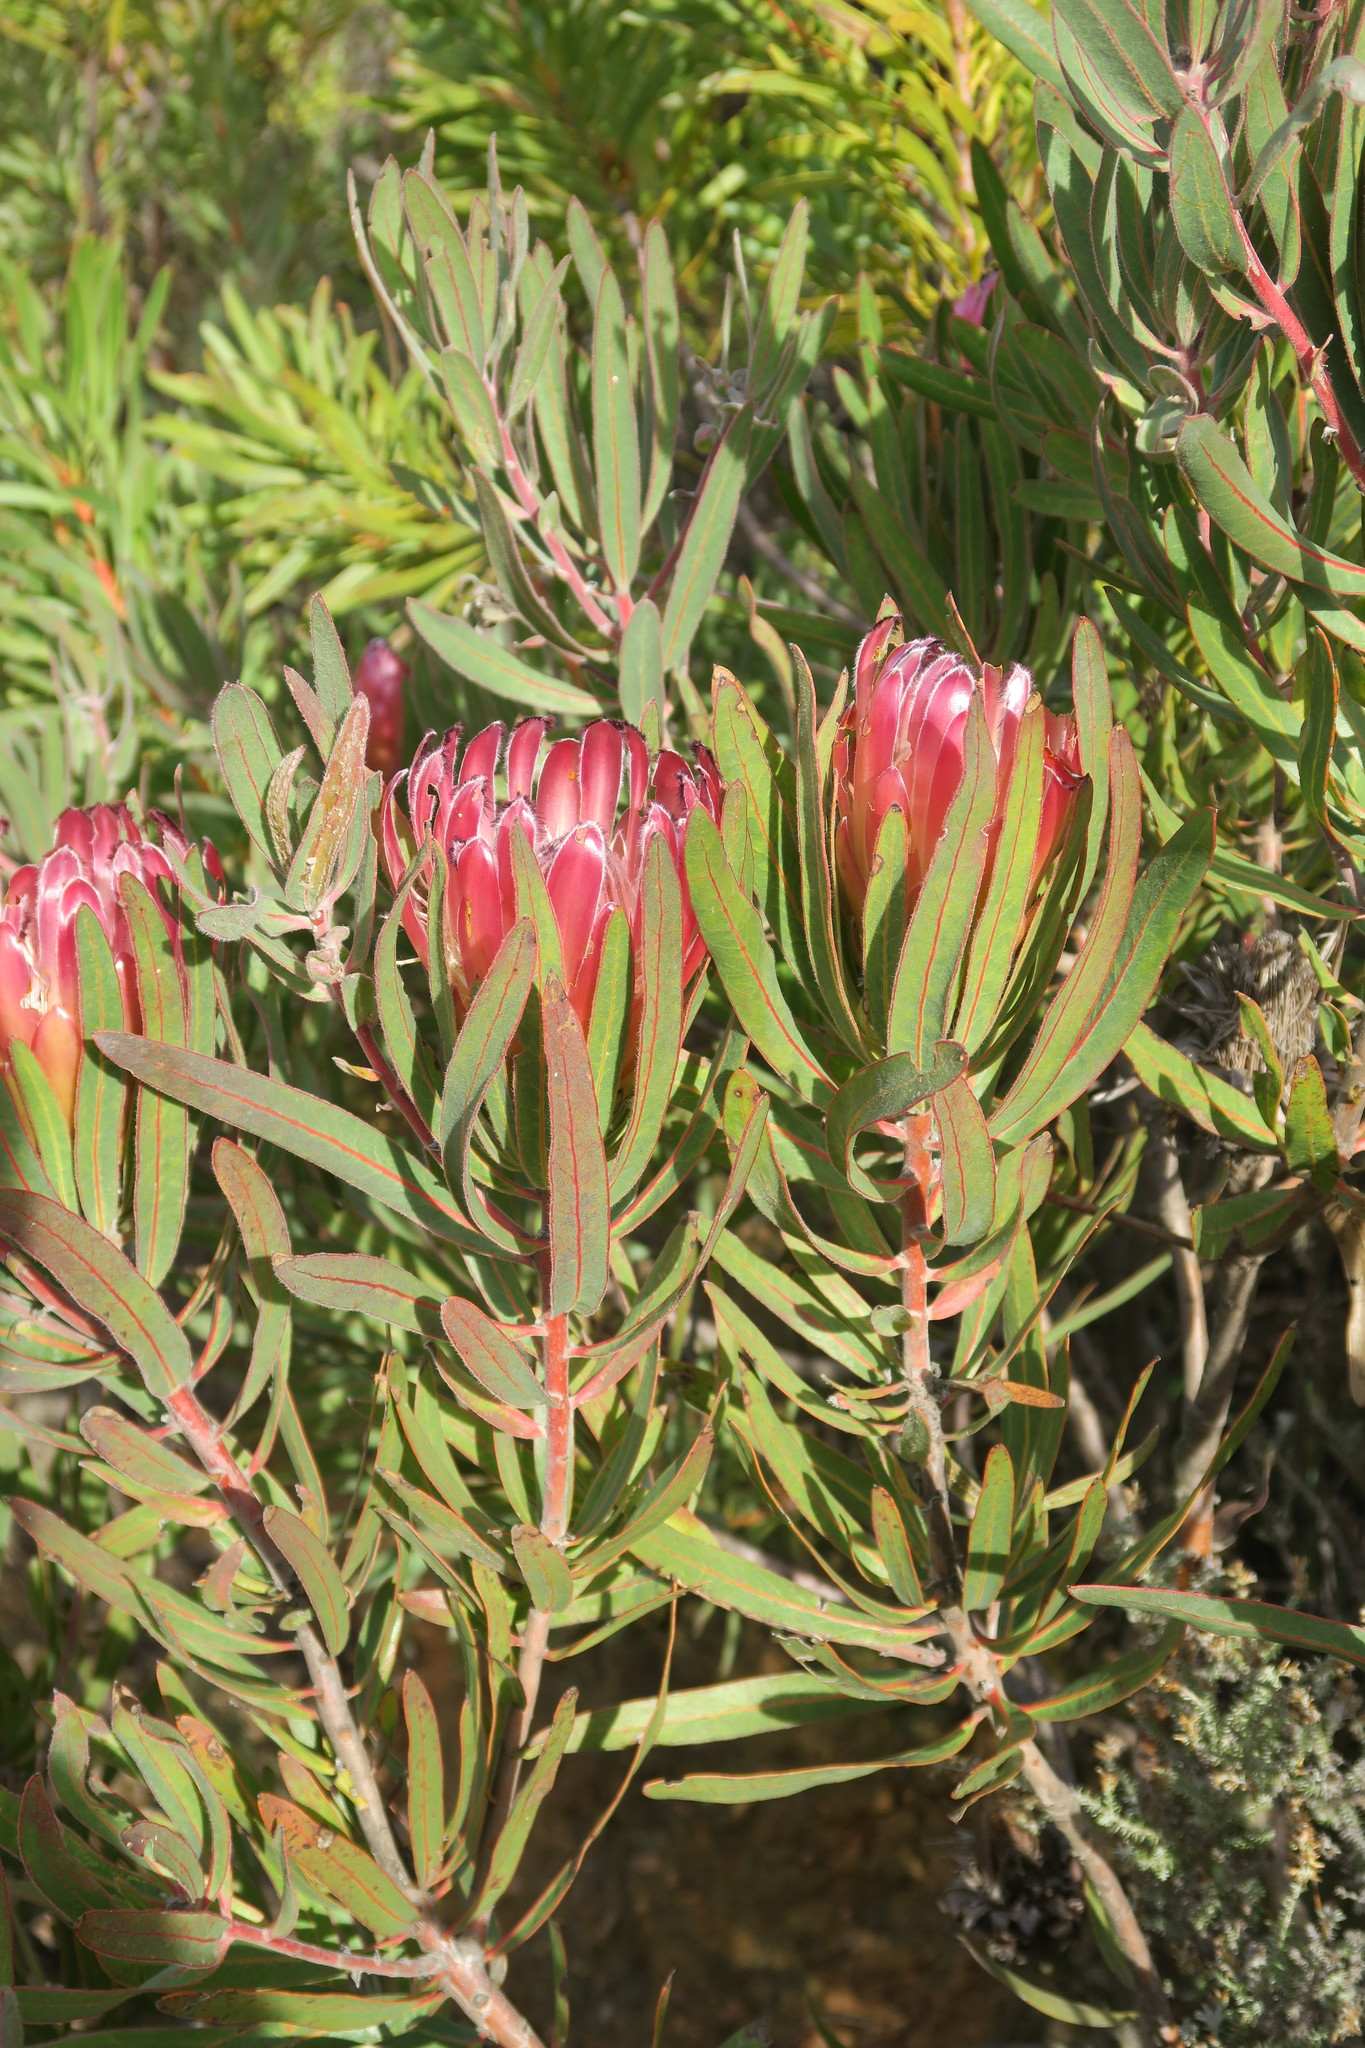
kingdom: Plantae
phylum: Tracheophyta
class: Magnoliopsida
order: Proteales
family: Proteaceae
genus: Protea
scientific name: Protea burchellii
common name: Burchell's sugarbush
